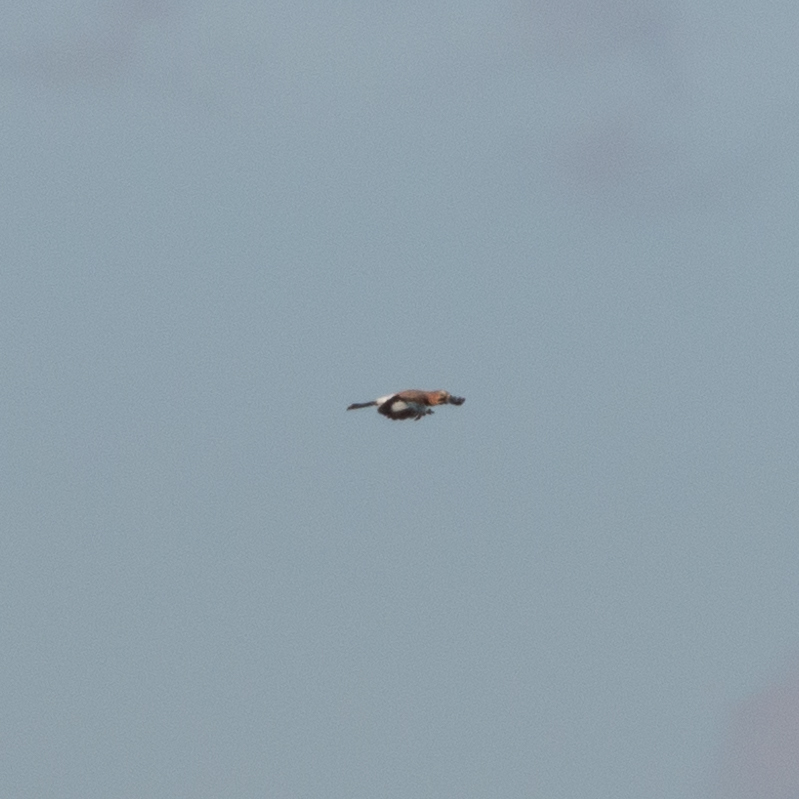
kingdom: Animalia
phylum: Chordata
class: Aves
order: Passeriformes
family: Corvidae
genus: Garrulus
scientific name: Garrulus glandarius
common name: Eurasian jay
